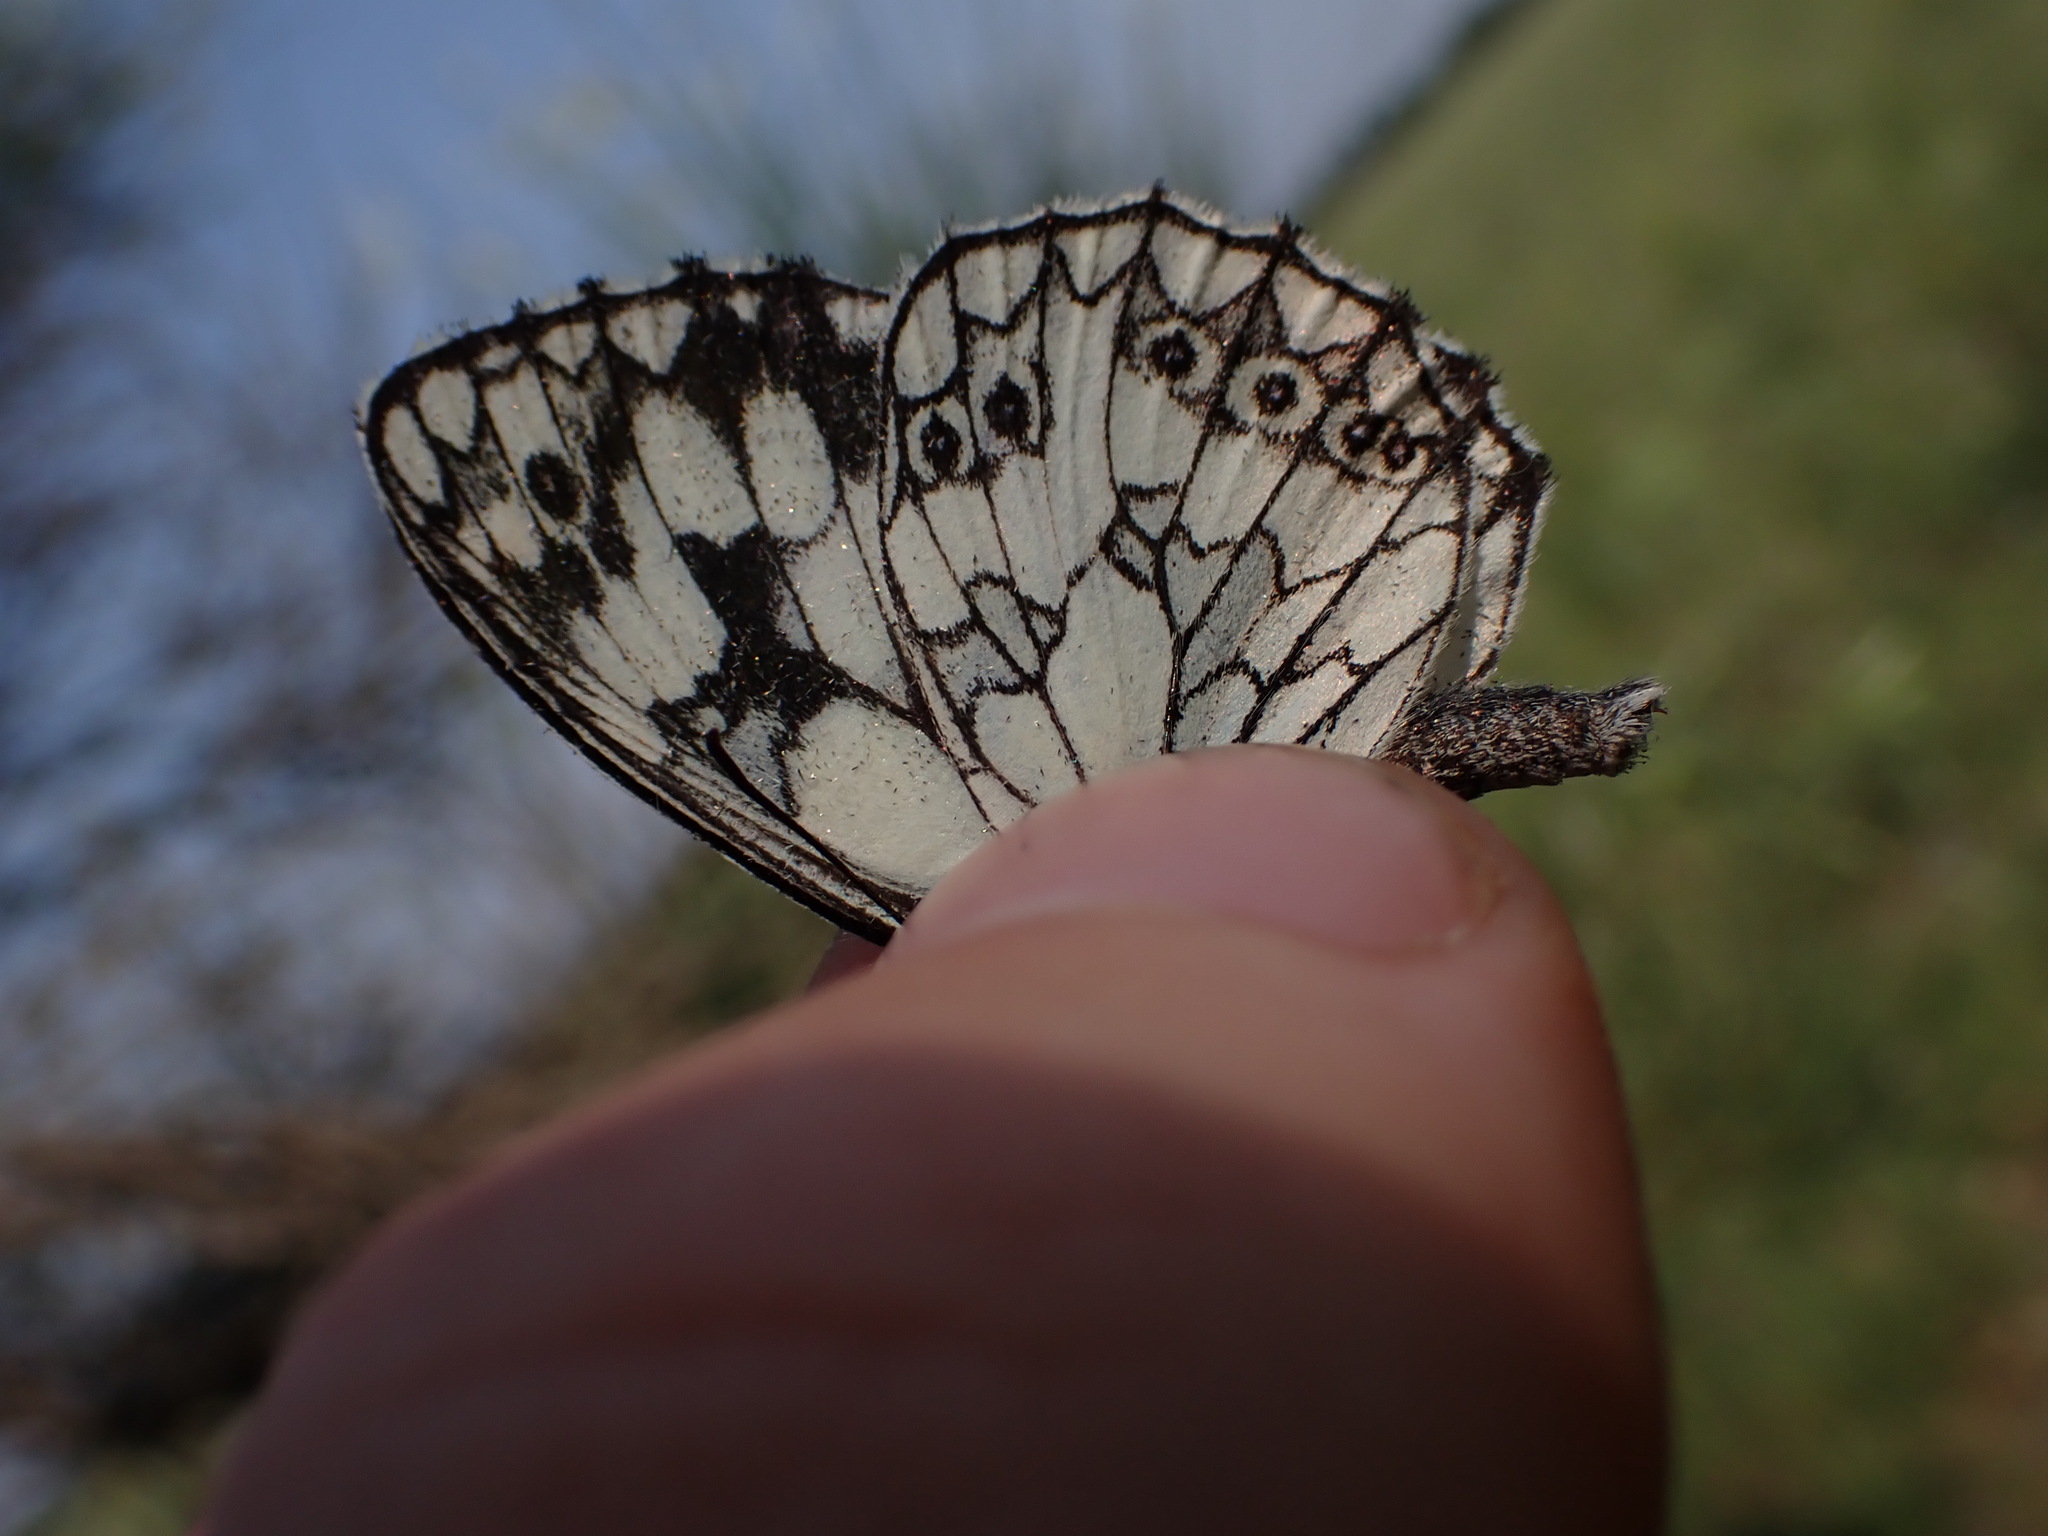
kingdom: Animalia
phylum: Arthropoda
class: Insecta
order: Lepidoptera
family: Nymphalidae
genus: Melanargia
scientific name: Melanargia galathea
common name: Marbled white
